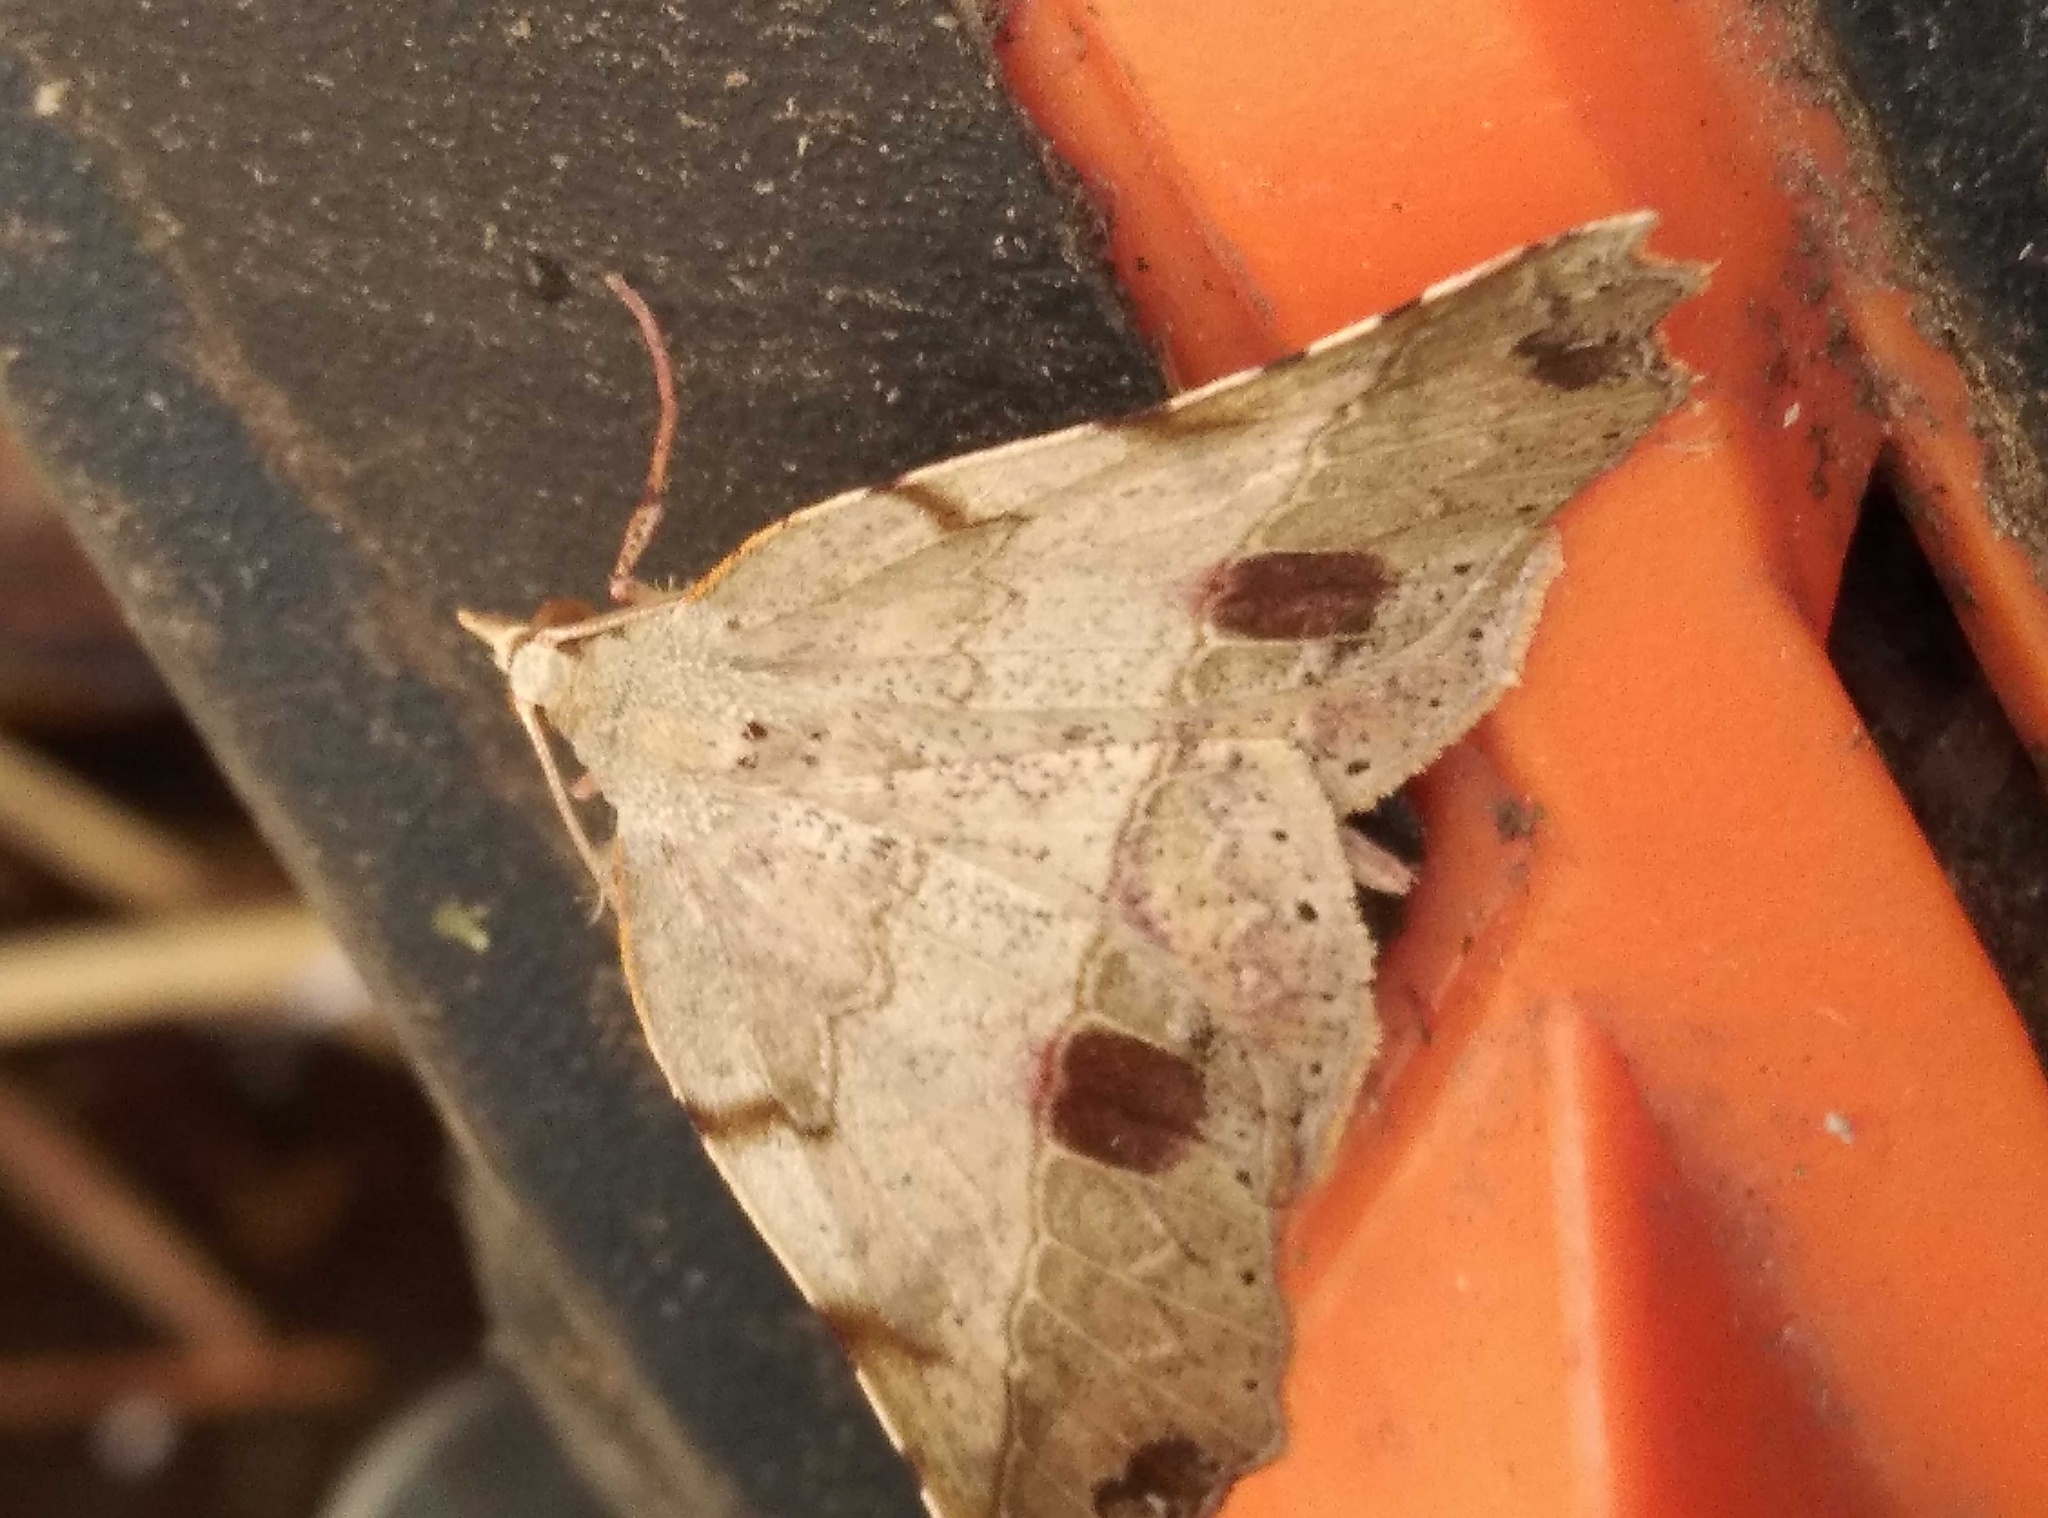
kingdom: Animalia
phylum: Arthropoda
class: Insecta
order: Lepidoptera
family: Geometridae
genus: Ischalis
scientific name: Ischalis gallaria
